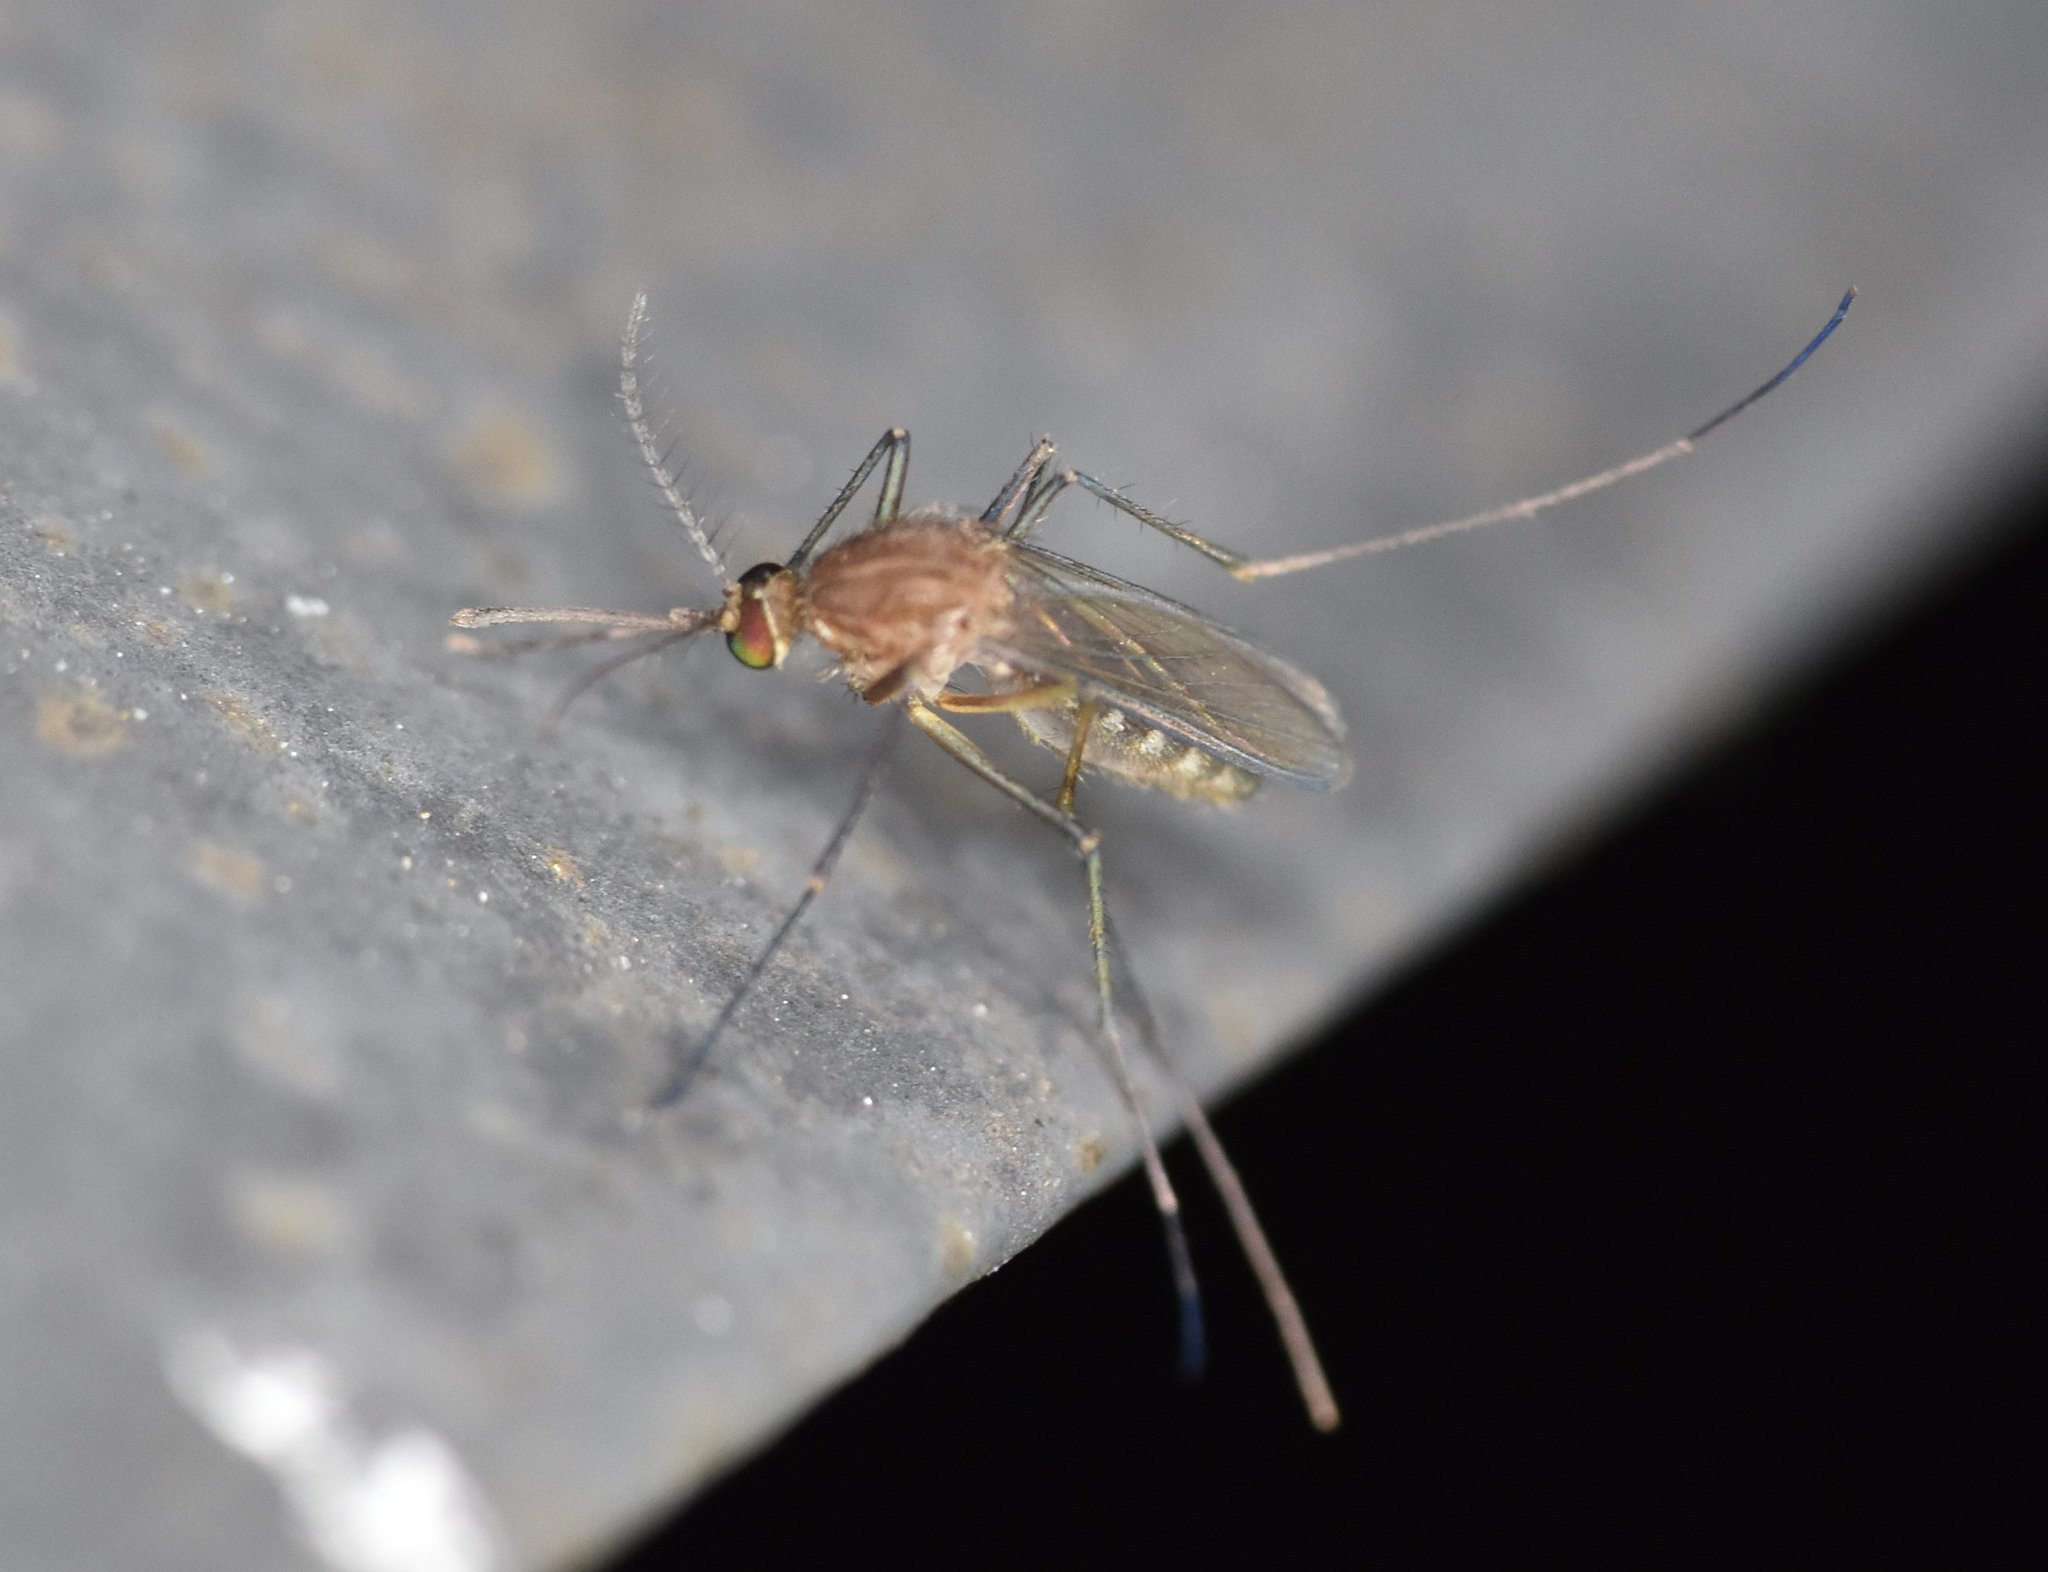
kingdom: Animalia
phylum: Arthropoda
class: Insecta
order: Diptera
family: Culicidae
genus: Culex
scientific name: Culex peccator
